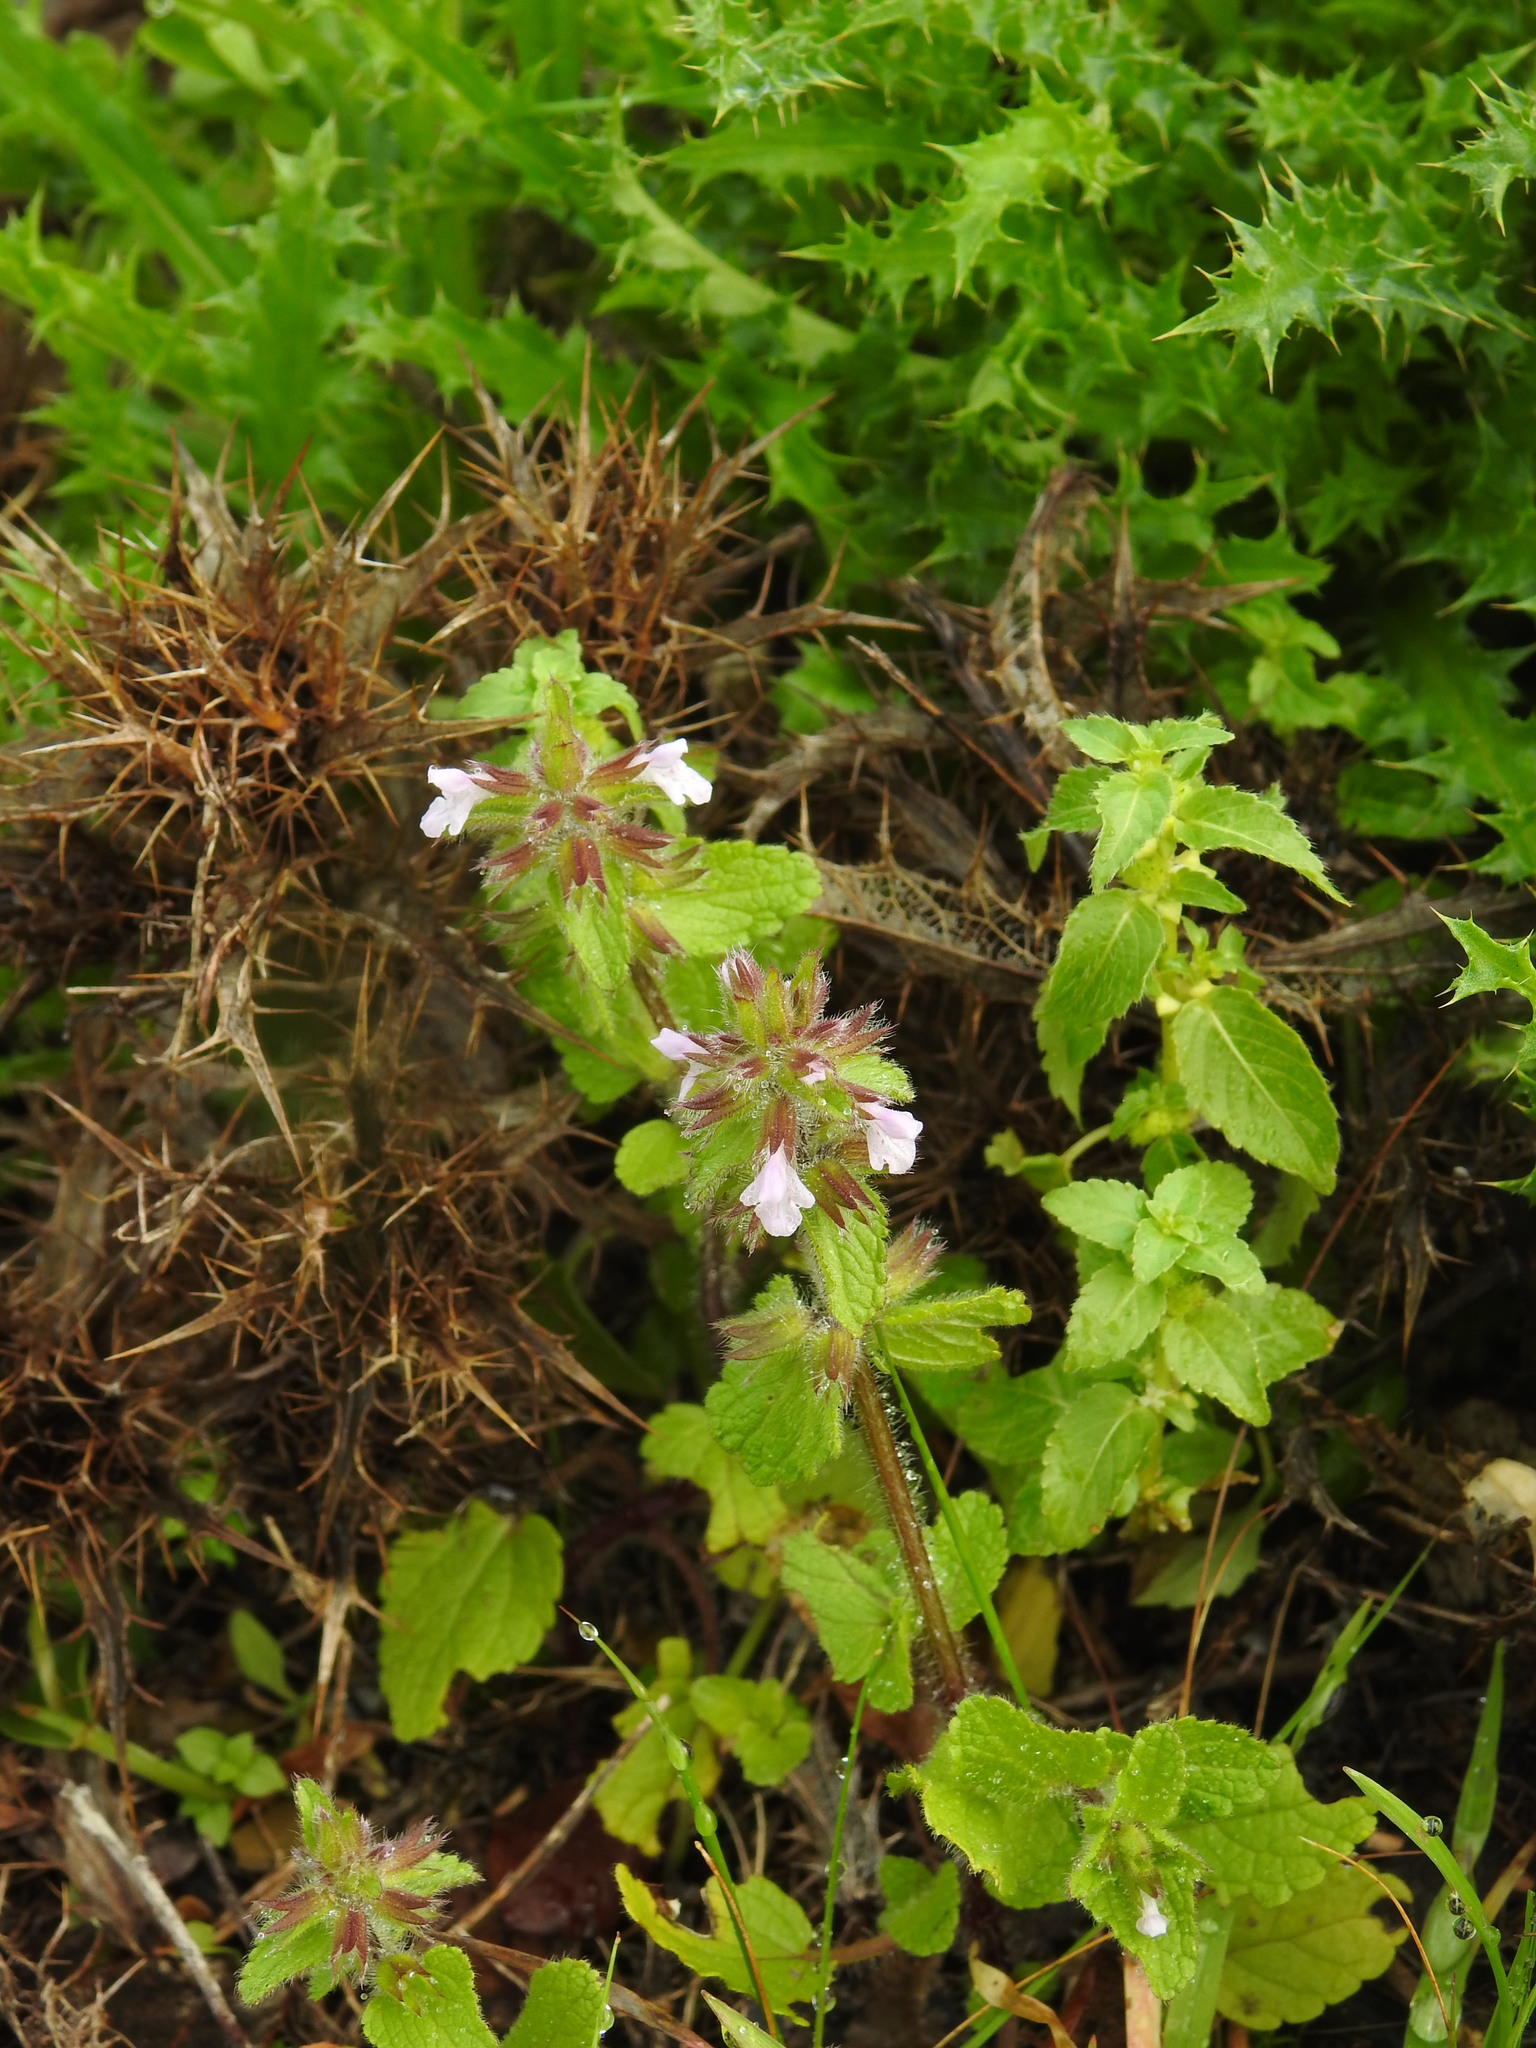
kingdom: Plantae
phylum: Tracheophyta
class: Magnoliopsida
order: Lamiales
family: Lamiaceae
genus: Stachys
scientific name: Stachys arvensis
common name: Field woundwort
